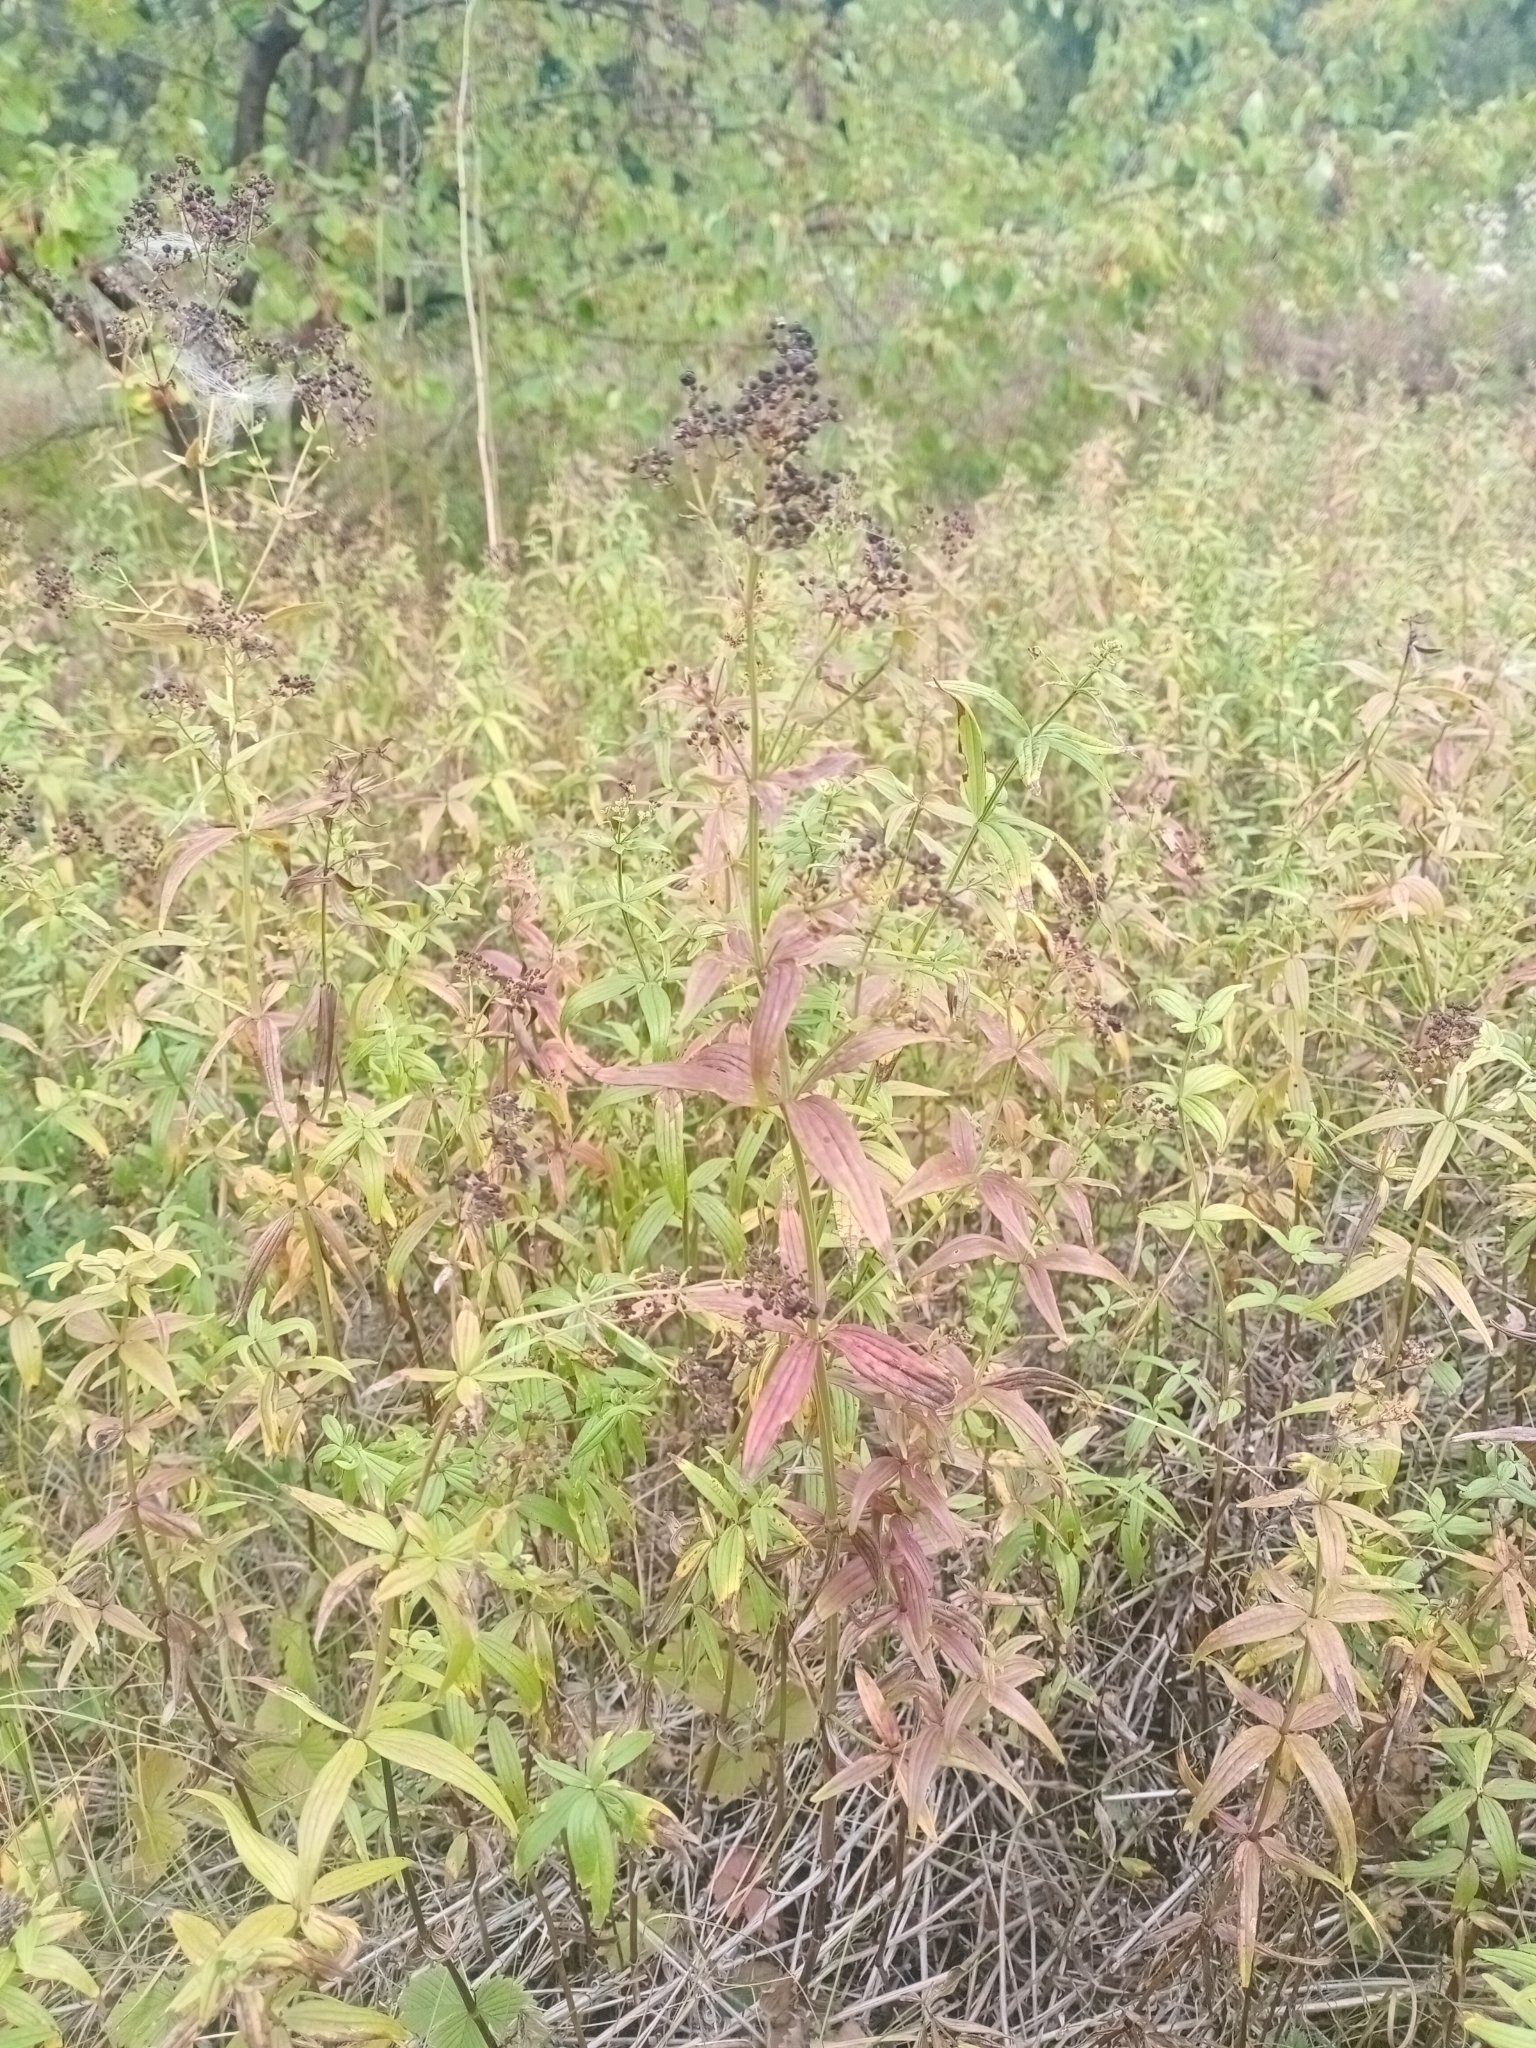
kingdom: Plantae
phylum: Tracheophyta
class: Magnoliopsida
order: Gentianales
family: Rubiaceae
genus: Galium
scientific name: Galium boreale
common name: Northern bedstraw
